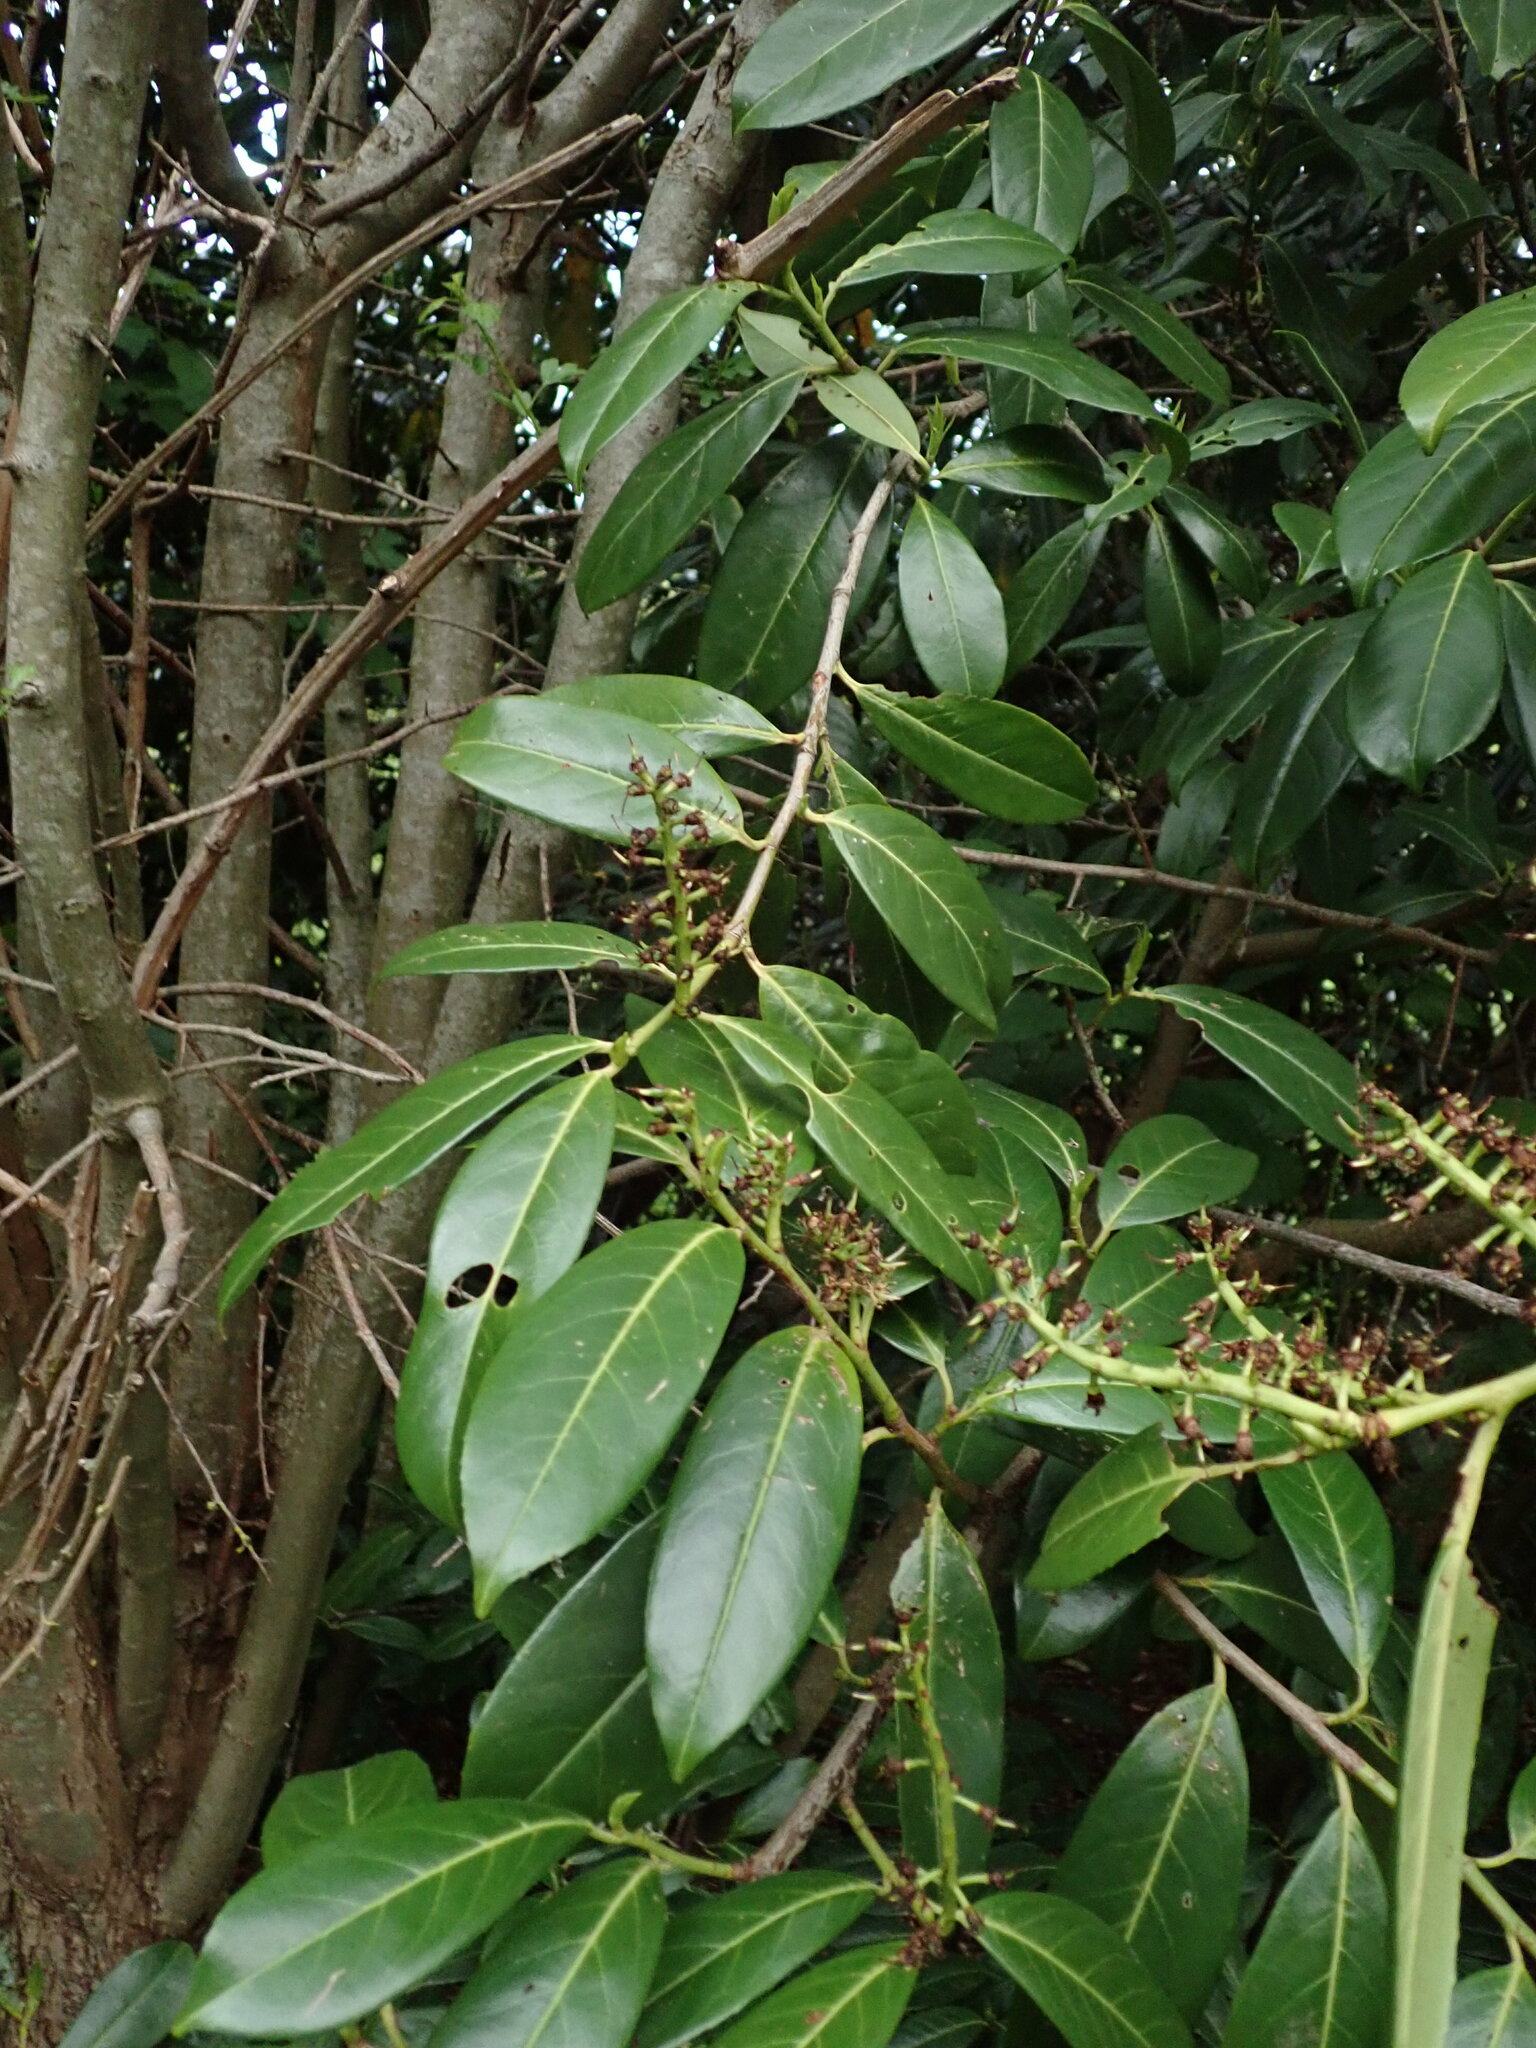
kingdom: Plantae
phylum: Tracheophyta
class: Magnoliopsida
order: Rosales
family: Rosaceae
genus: Prunus
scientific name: Prunus laurocerasus
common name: Cherry laurel
